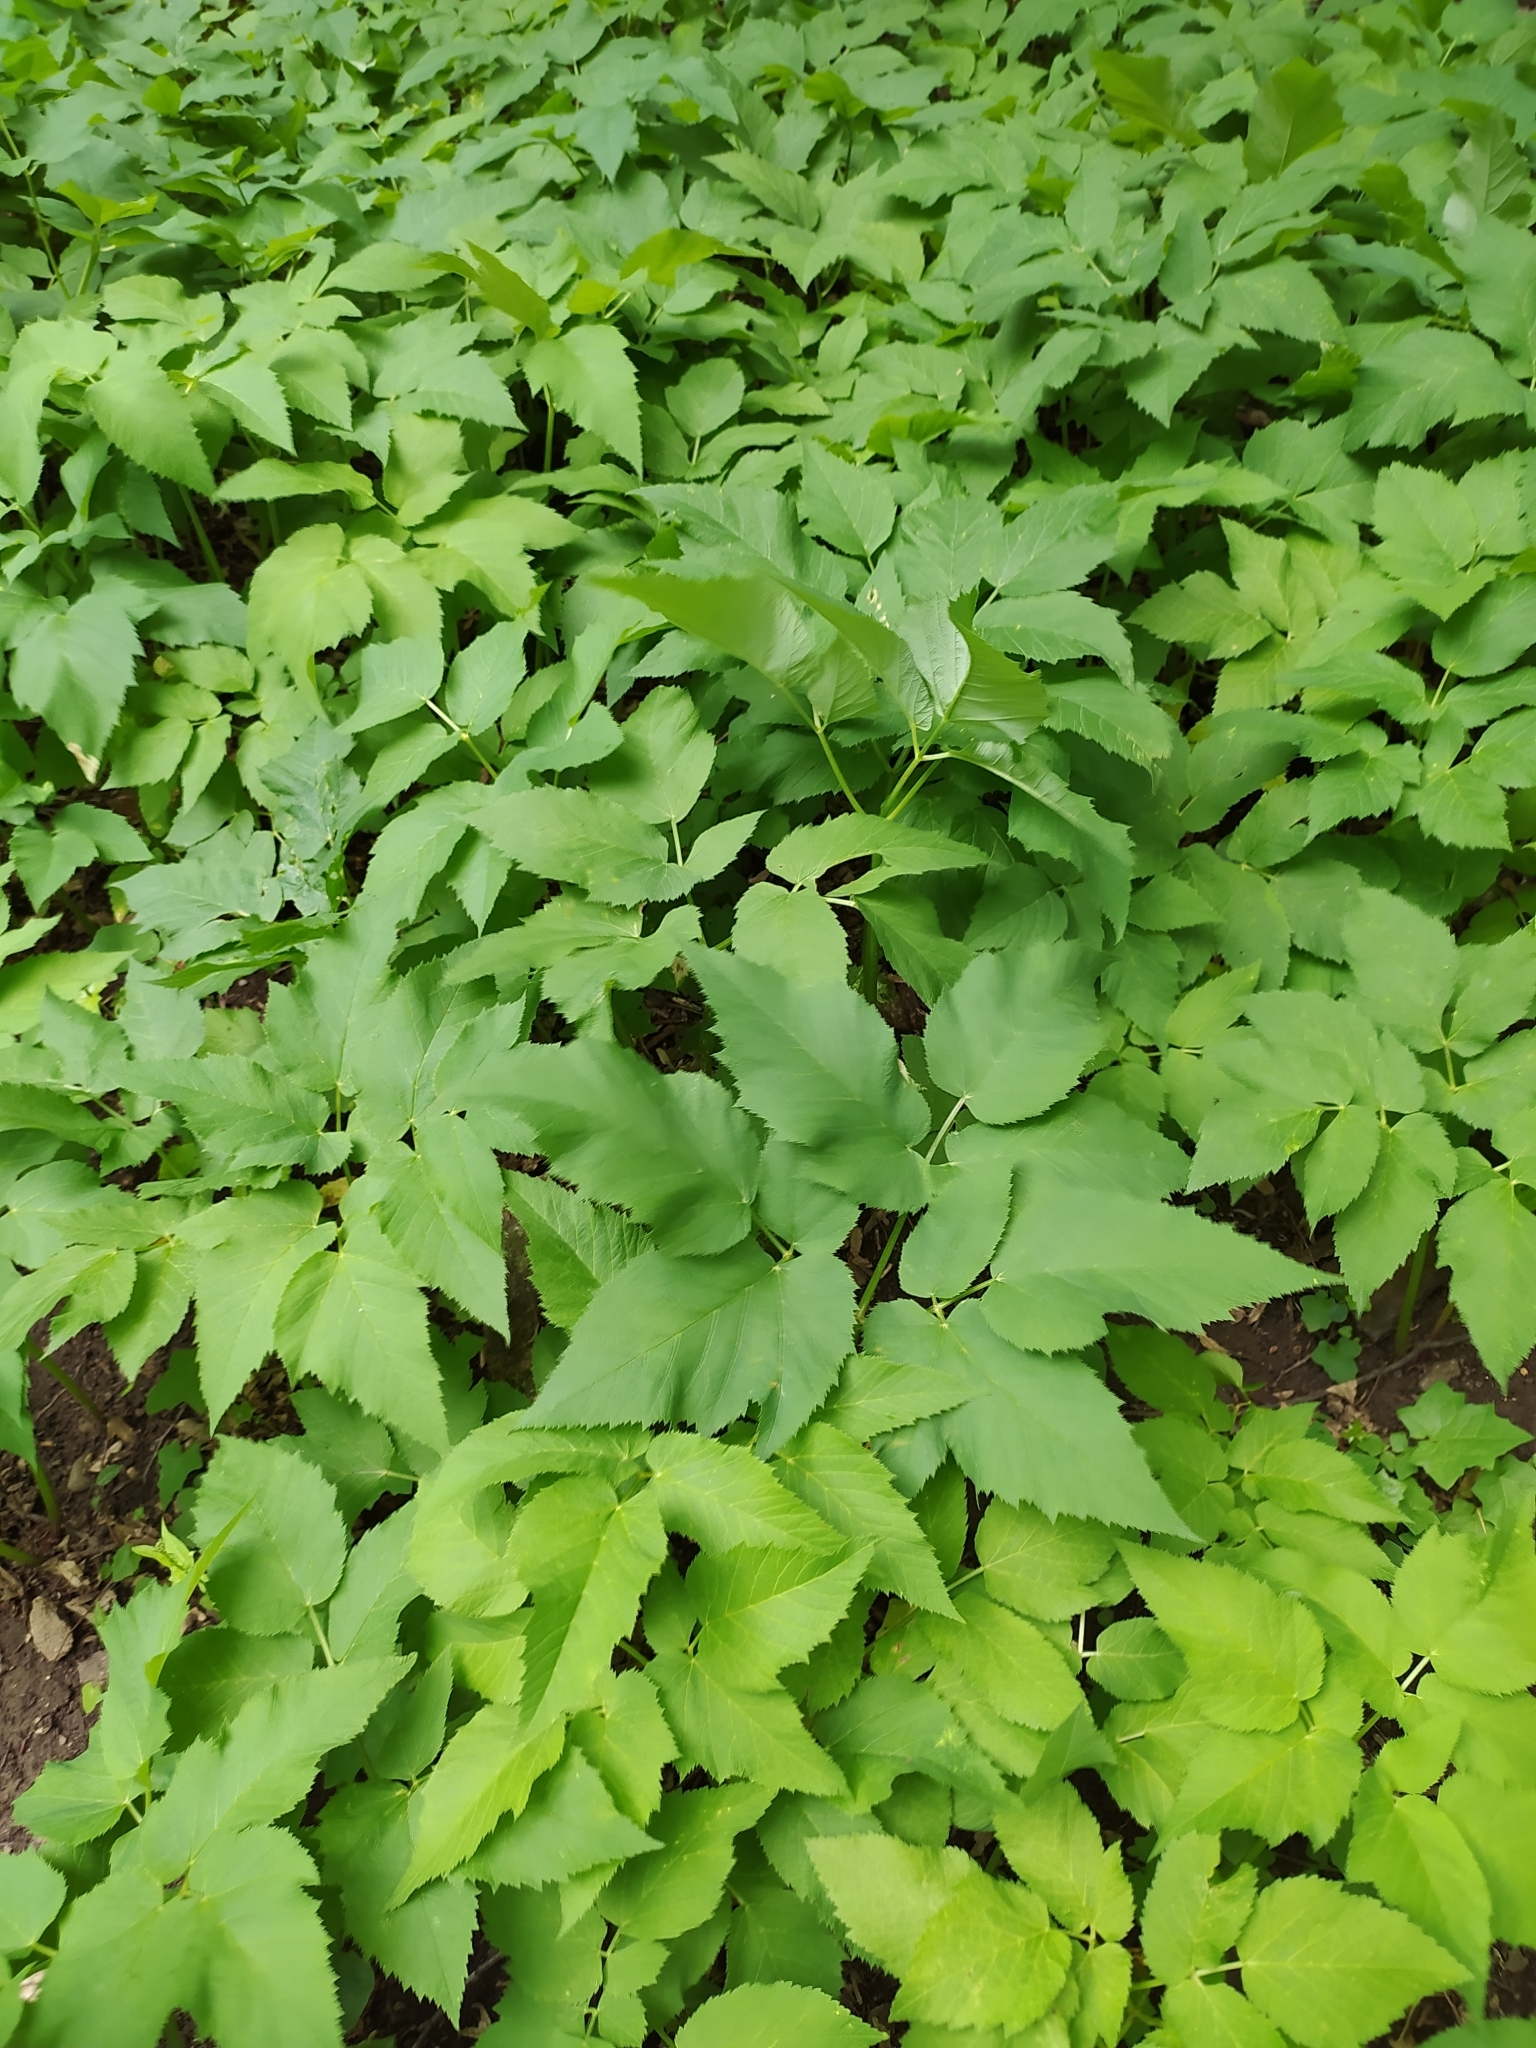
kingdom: Plantae
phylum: Tracheophyta
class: Magnoliopsida
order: Apiales
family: Apiaceae
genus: Aegopodium
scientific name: Aegopodium podagraria
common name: Ground-elder
